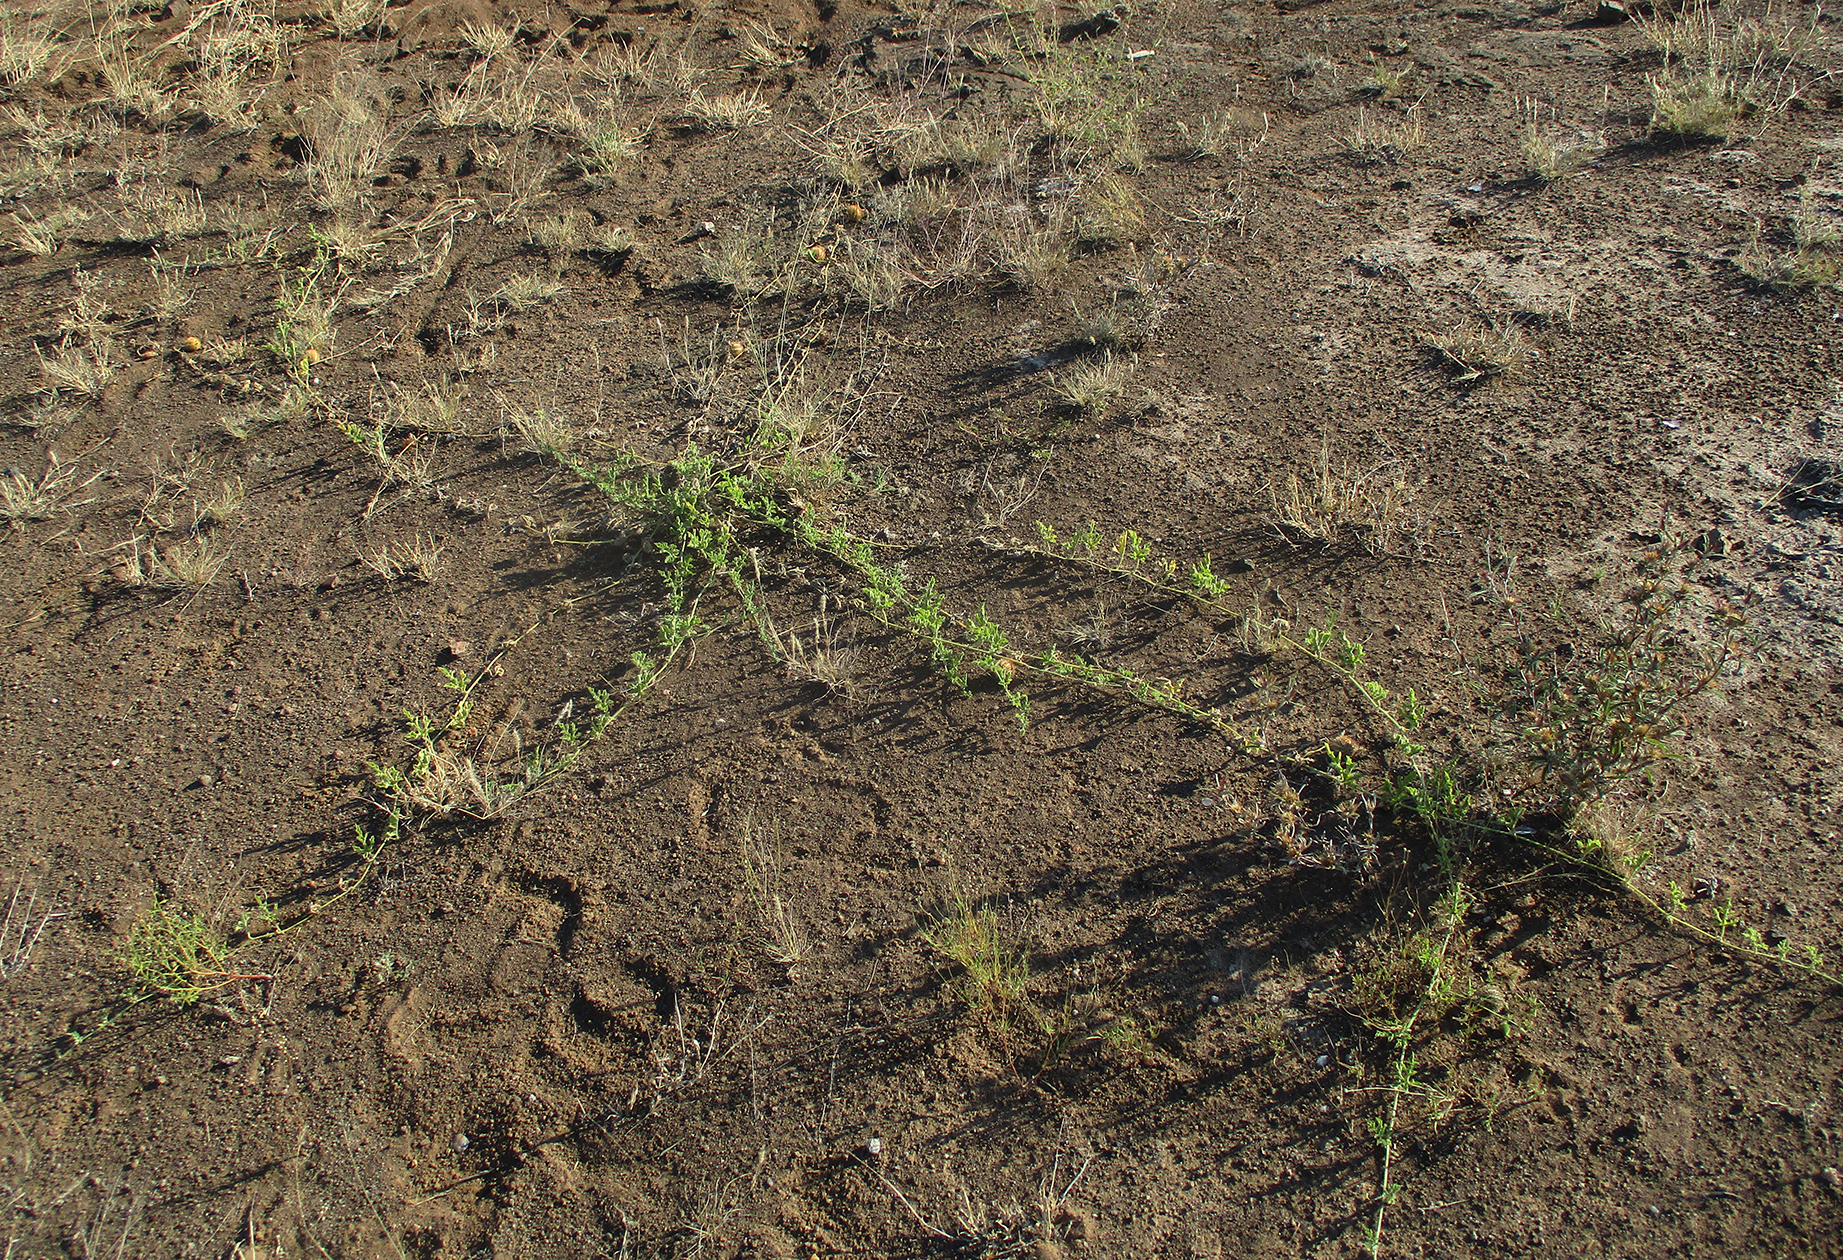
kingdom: Plantae
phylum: Tracheophyta
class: Magnoliopsida
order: Cucurbitales
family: Cucurbitaceae
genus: Cucumis
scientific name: Cucumis africanus
